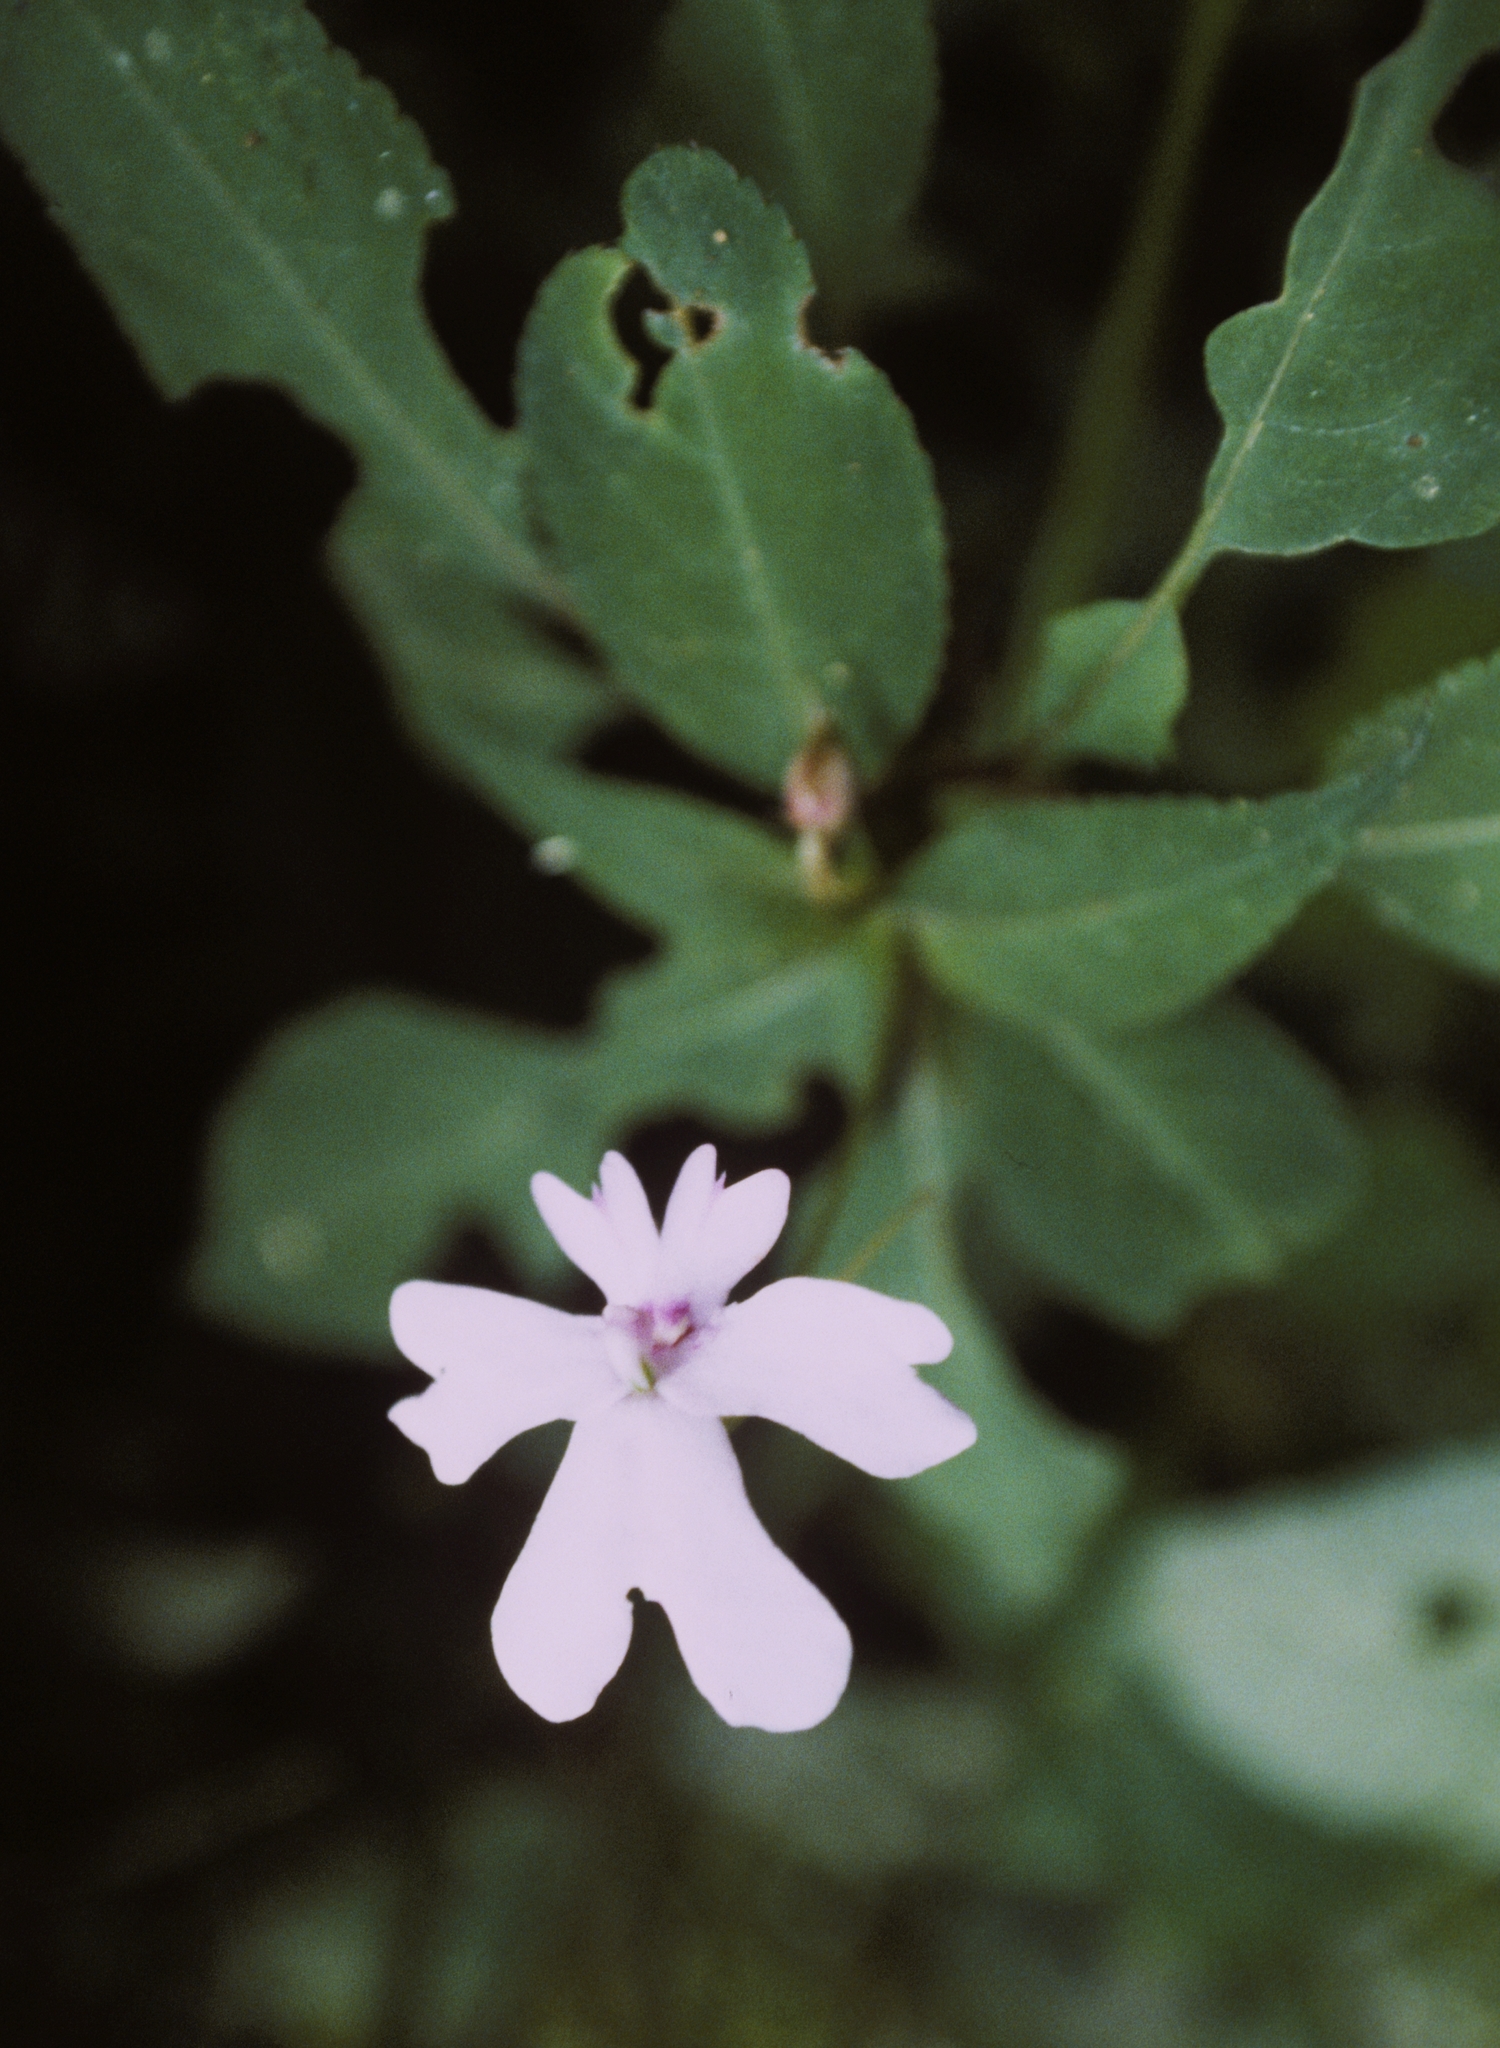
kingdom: Plantae
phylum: Tracheophyta
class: Magnoliopsida
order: Ericales
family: Balsaminaceae
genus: Impatiens
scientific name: Impatiens kinabaluensis
